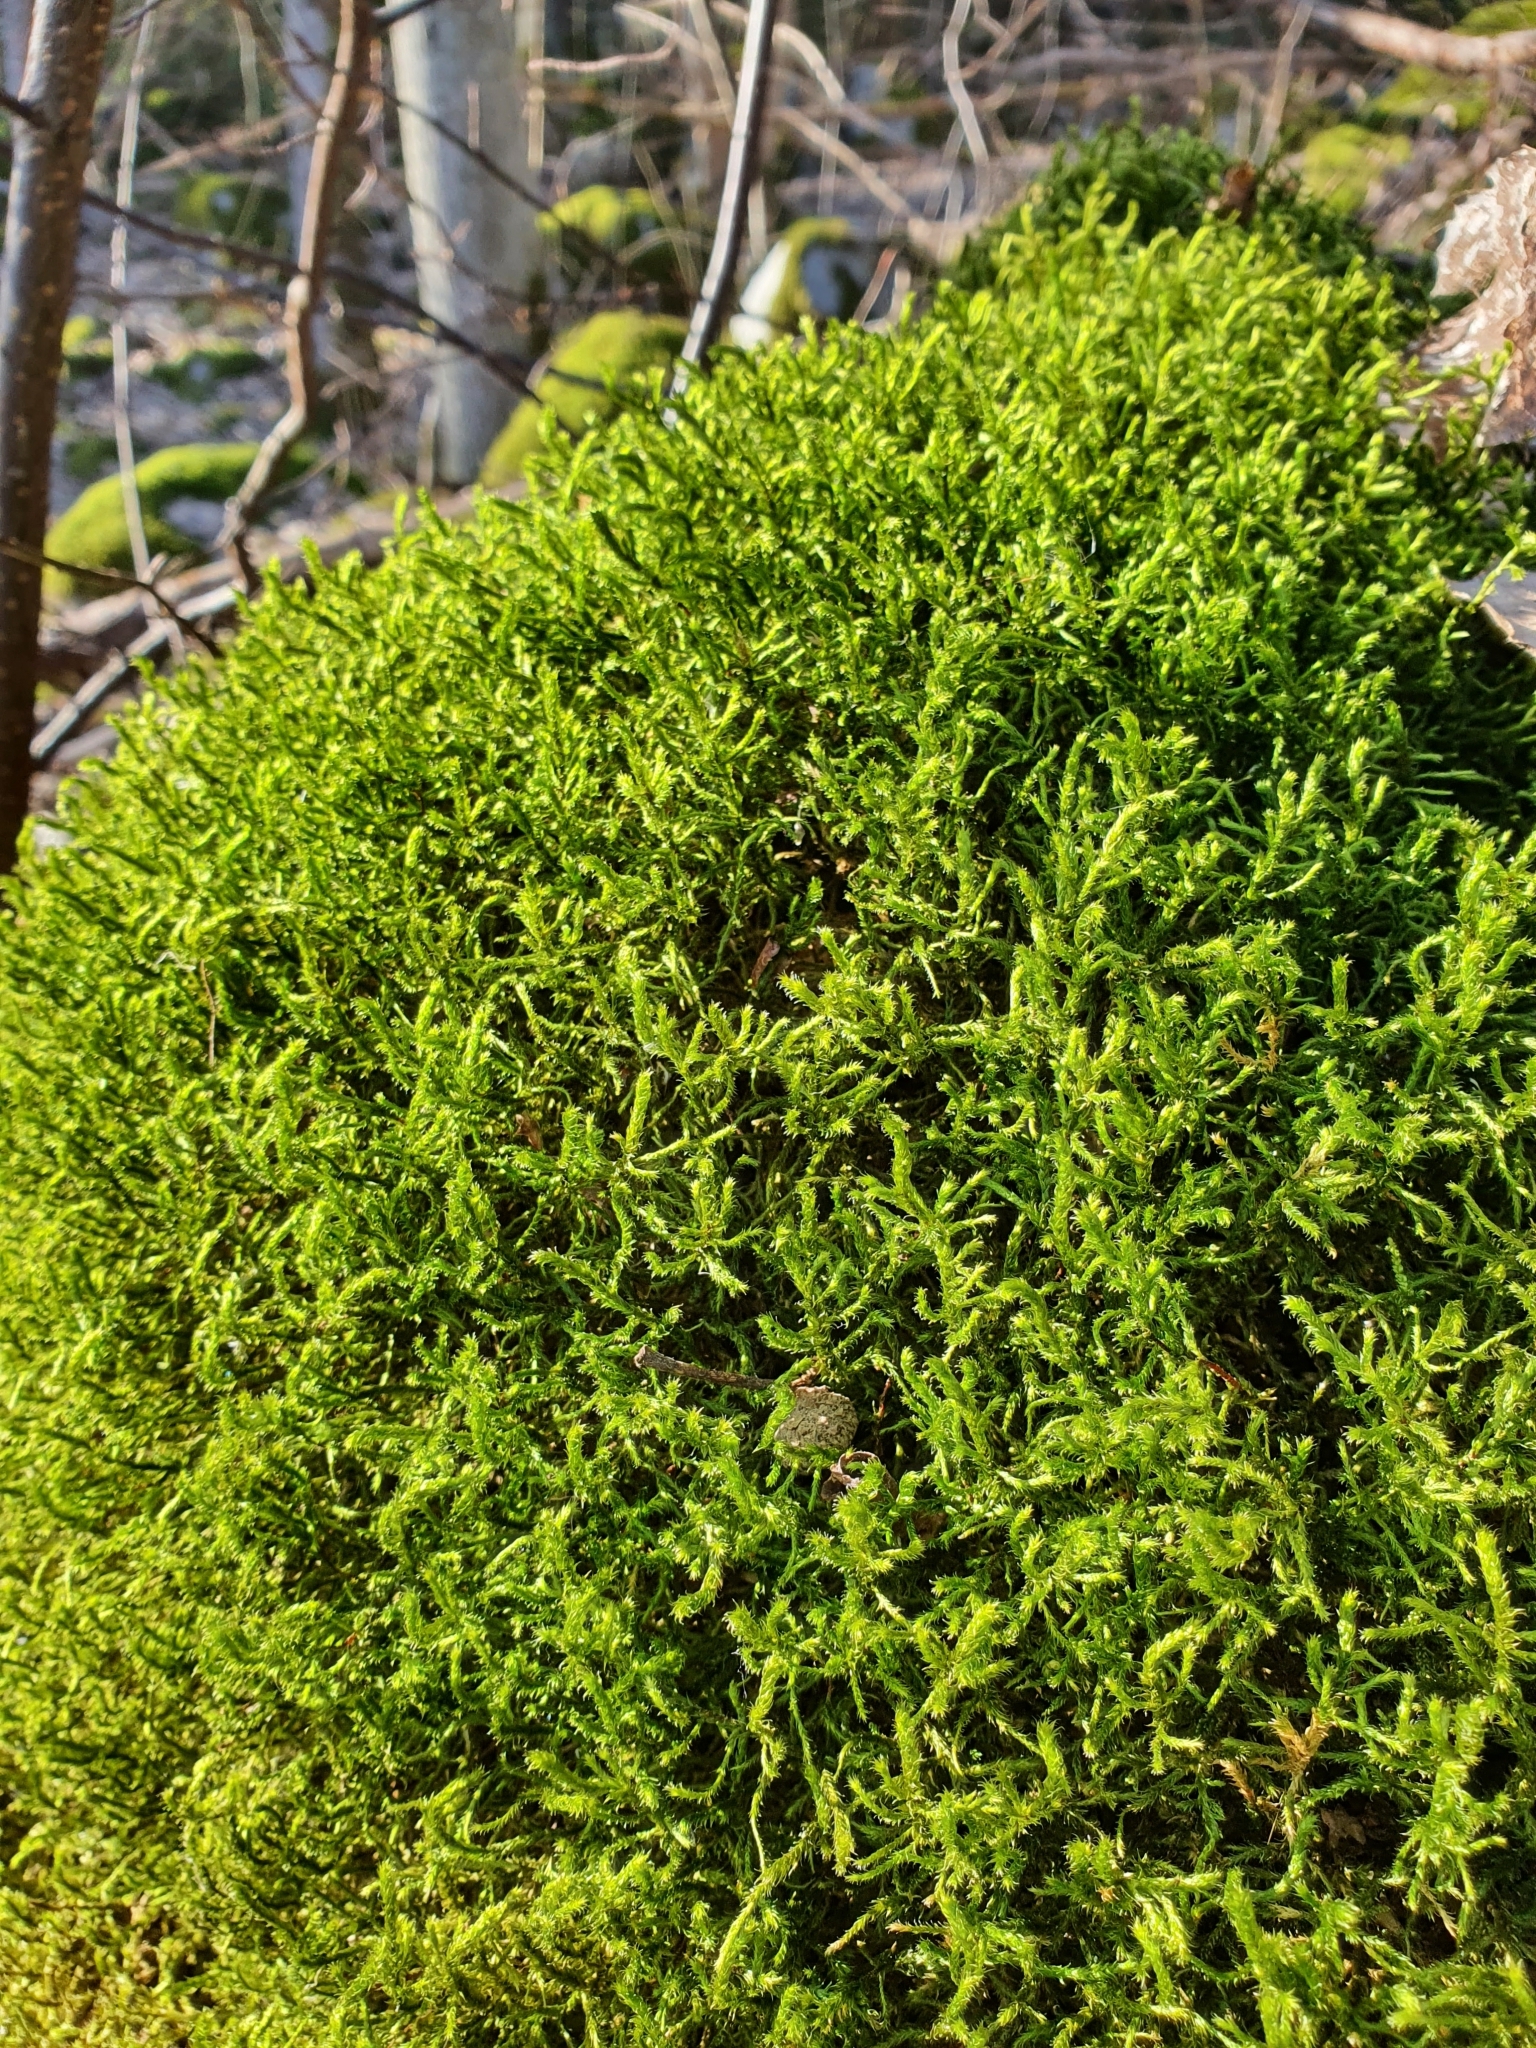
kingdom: Plantae
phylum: Bryophyta
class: Bryopsida
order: Hypnales
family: Antitrichiaceae
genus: Antitrichia
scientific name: Antitrichia curtipendula
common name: Pendulous wing-moss
